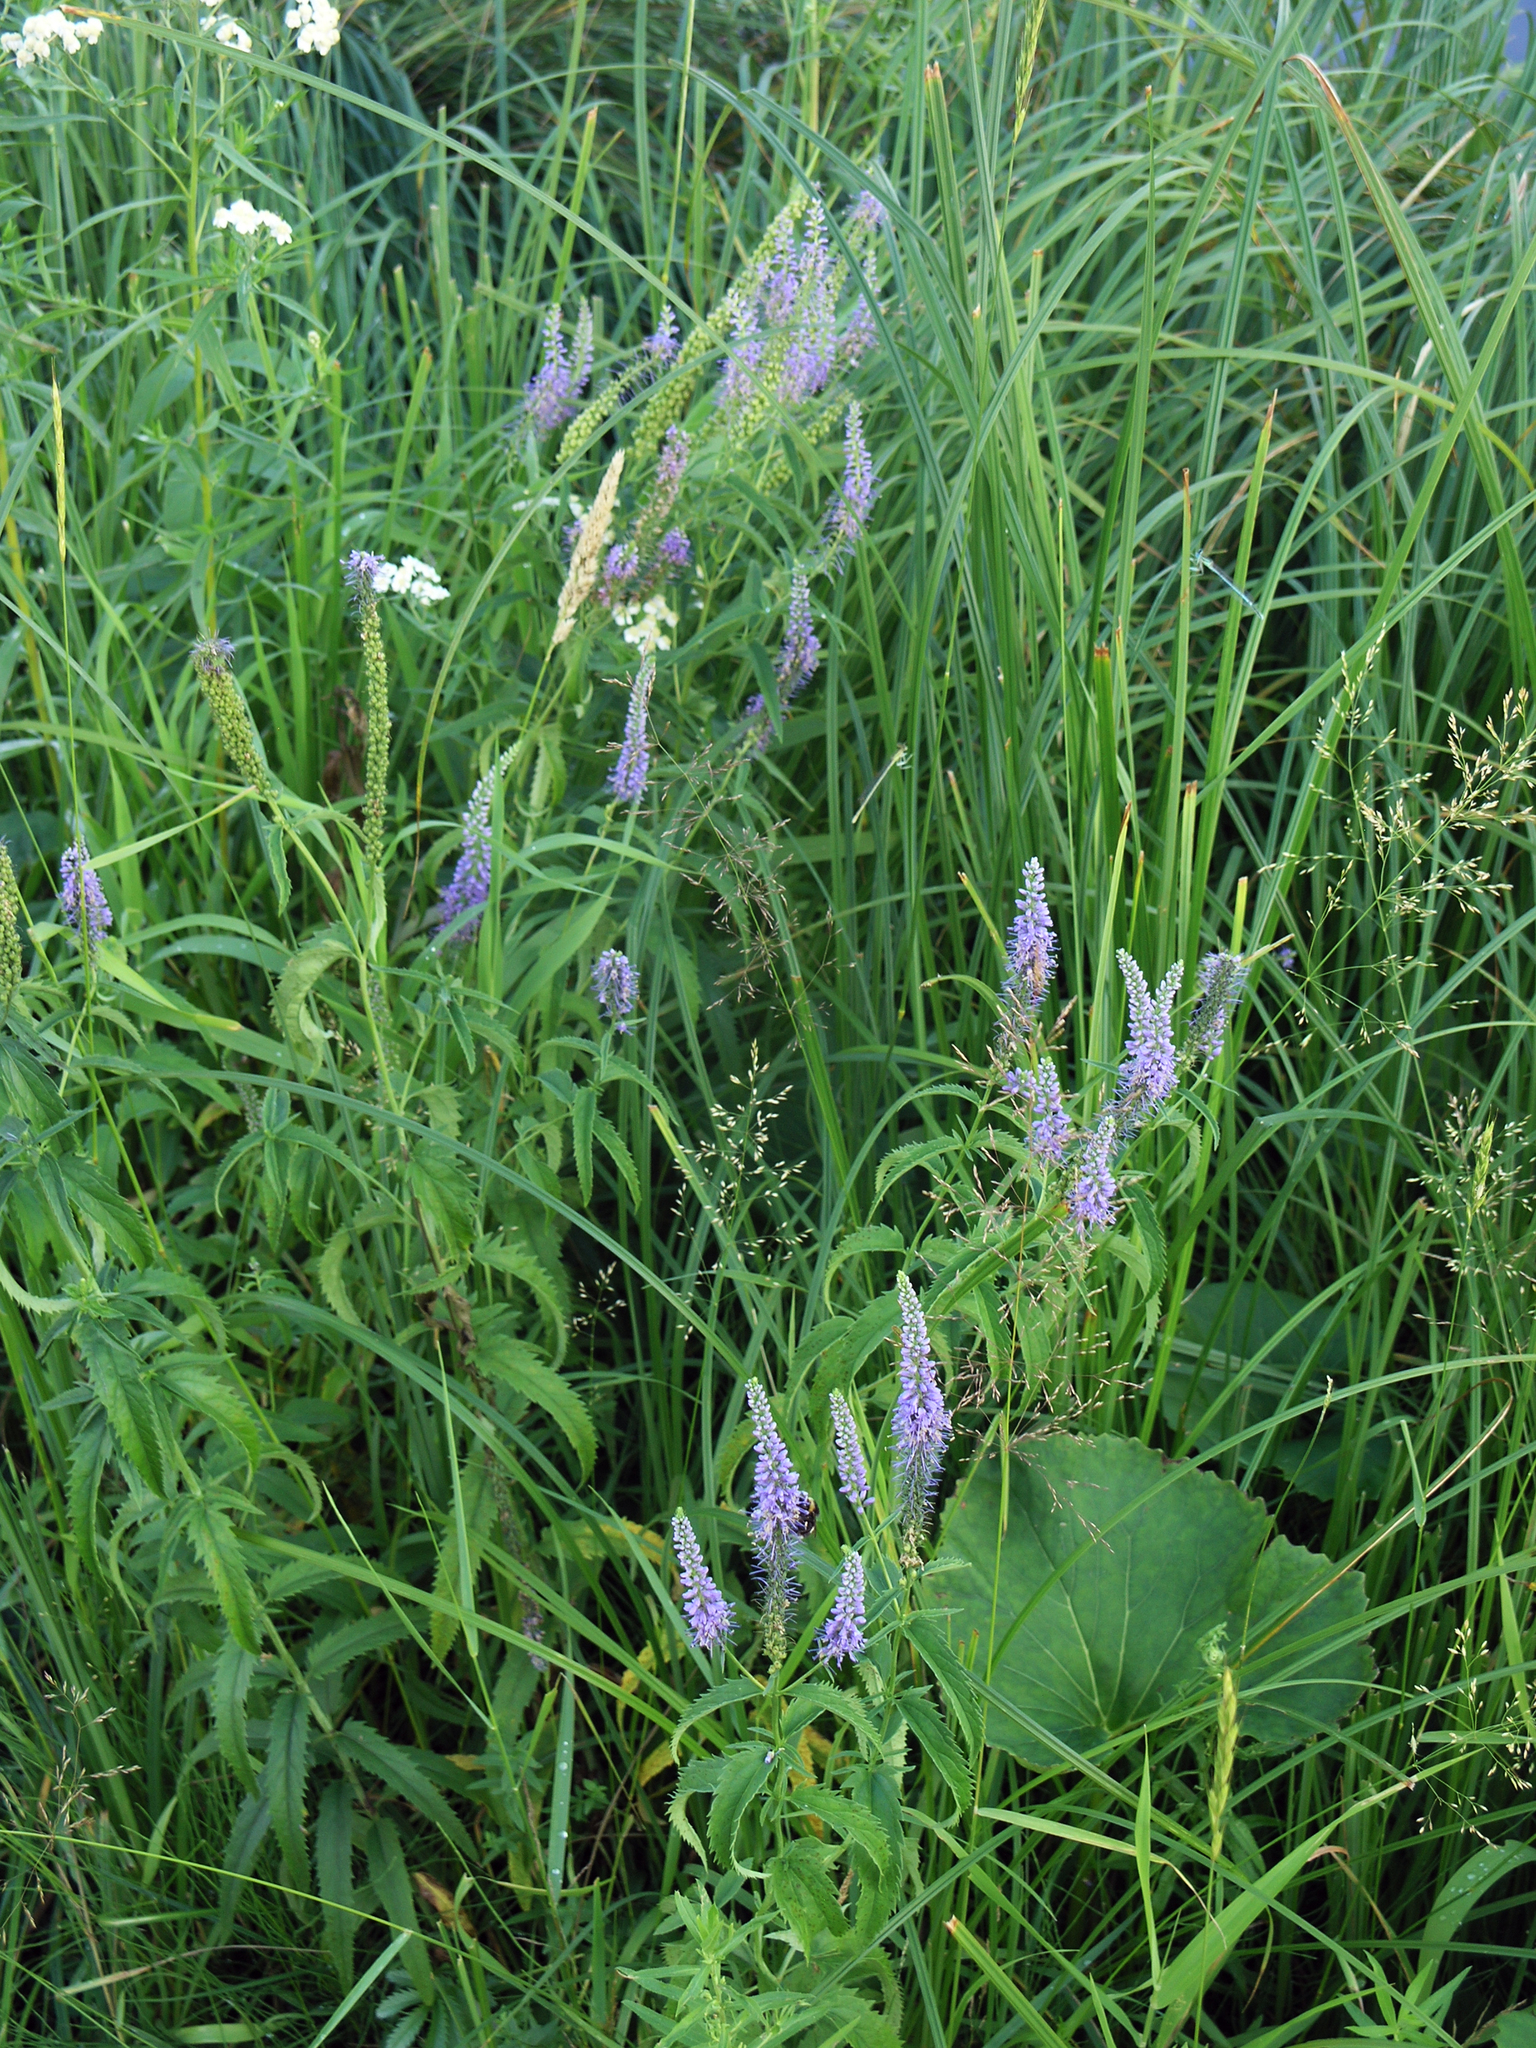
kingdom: Plantae
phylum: Tracheophyta
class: Magnoliopsida
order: Lamiales
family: Plantaginaceae
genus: Veronica
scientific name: Veronica longifolia
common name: Garden speedwell
